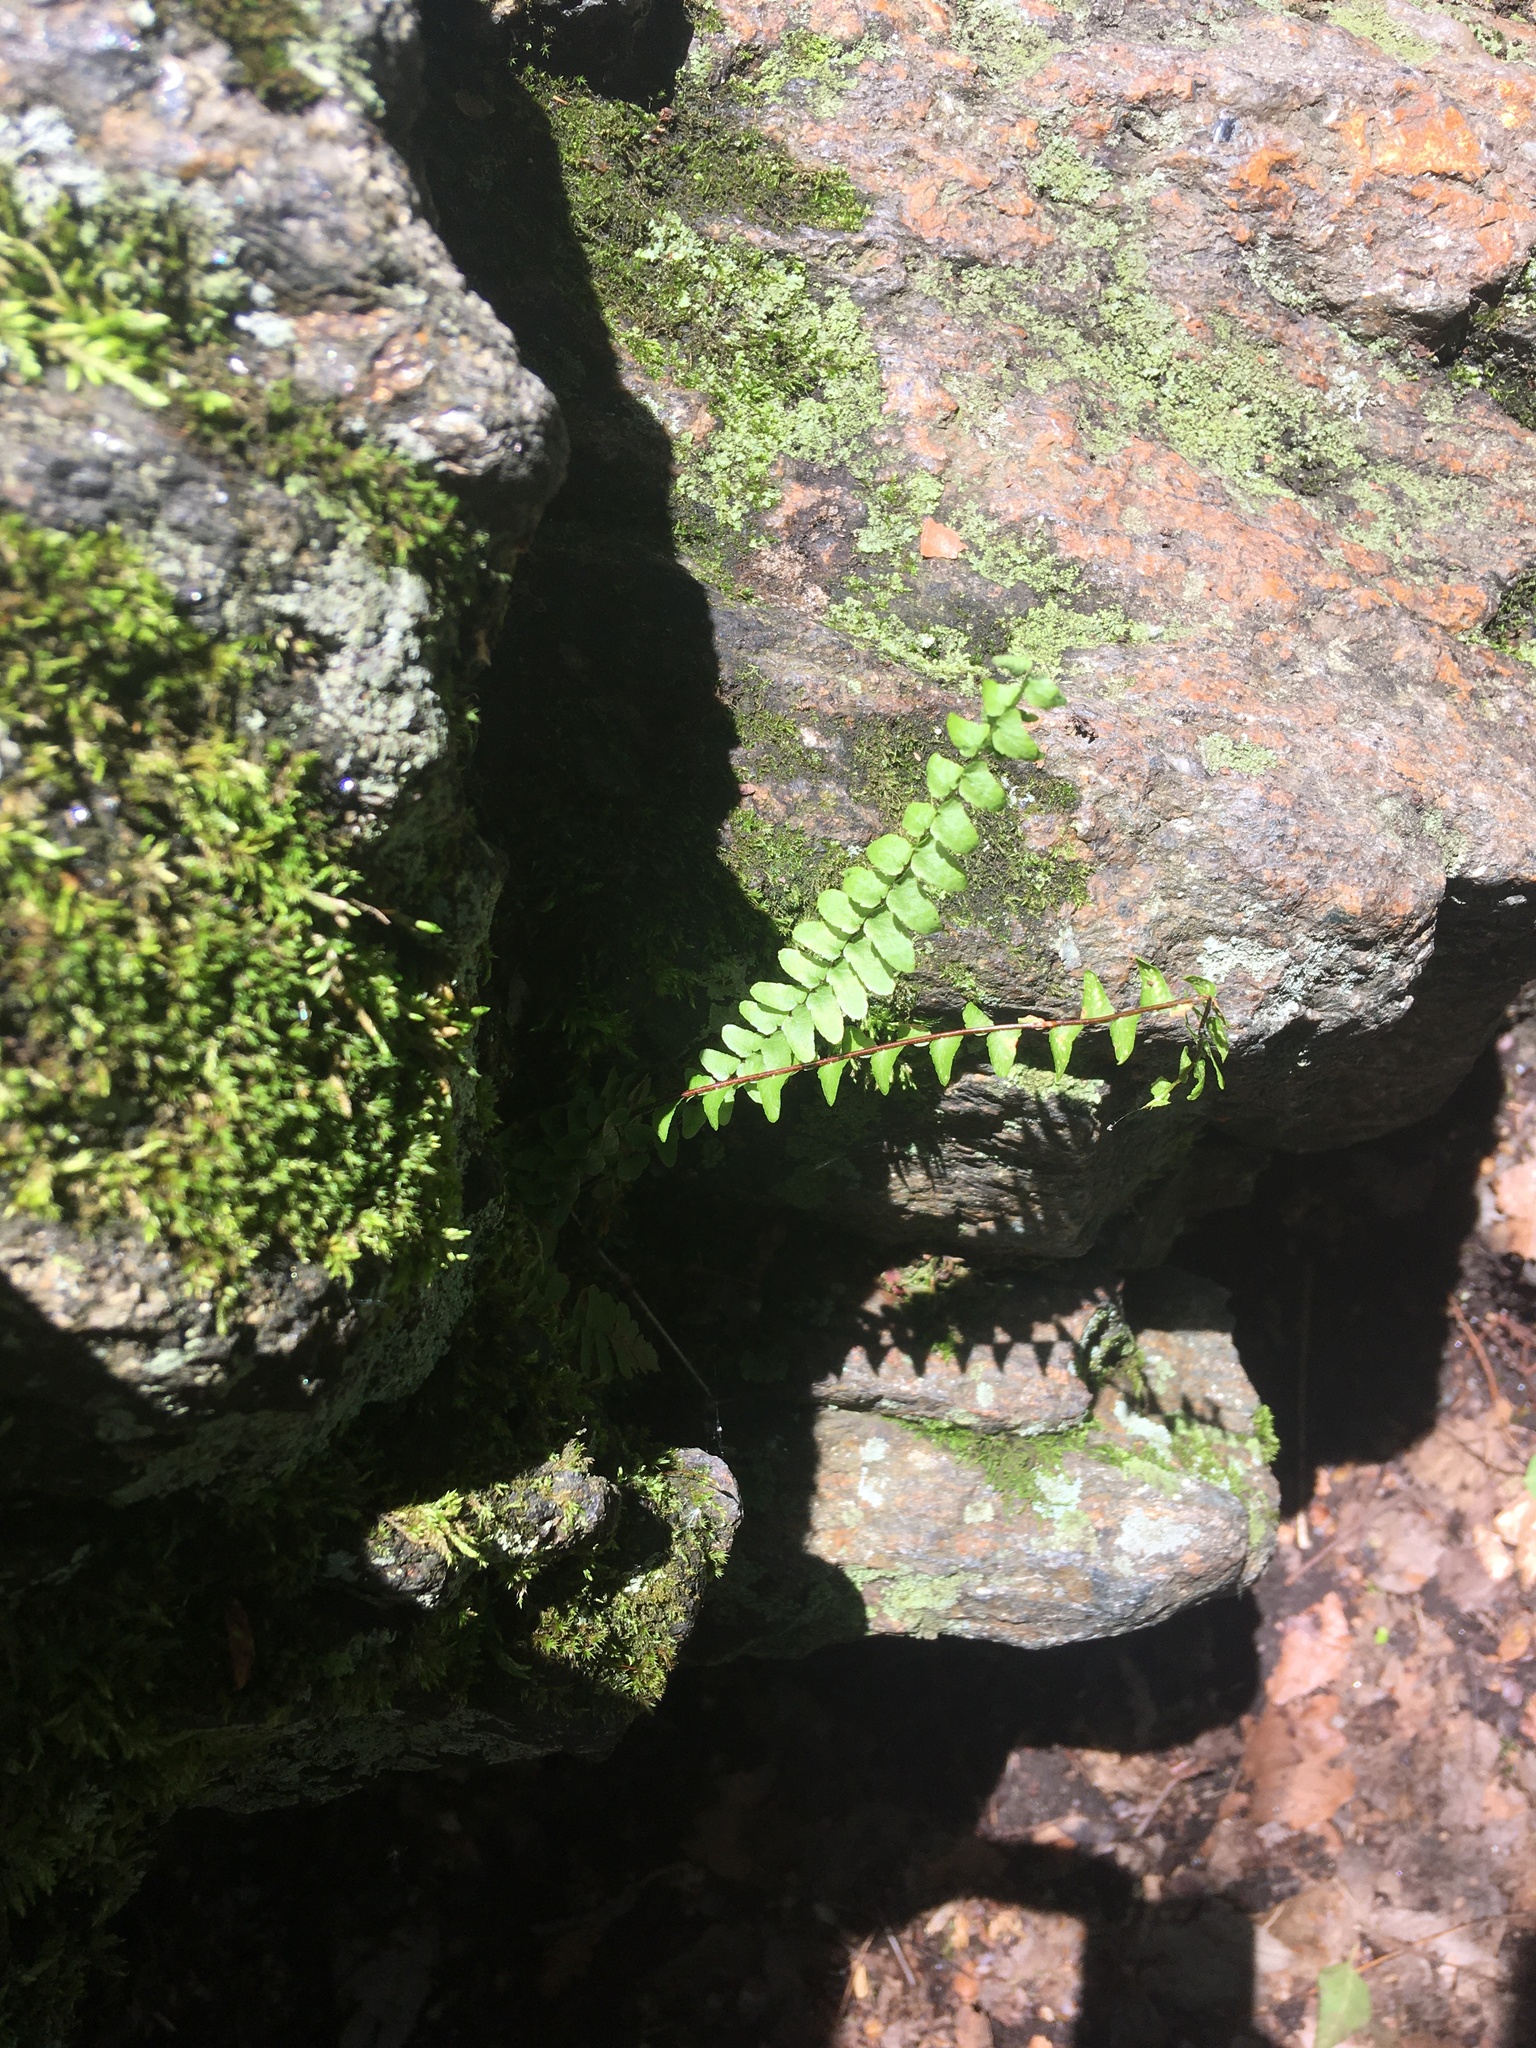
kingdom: Plantae
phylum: Tracheophyta
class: Polypodiopsida
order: Polypodiales
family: Aspleniaceae
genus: Asplenium
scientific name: Asplenium platyneuron
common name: Ebony spleenwort
